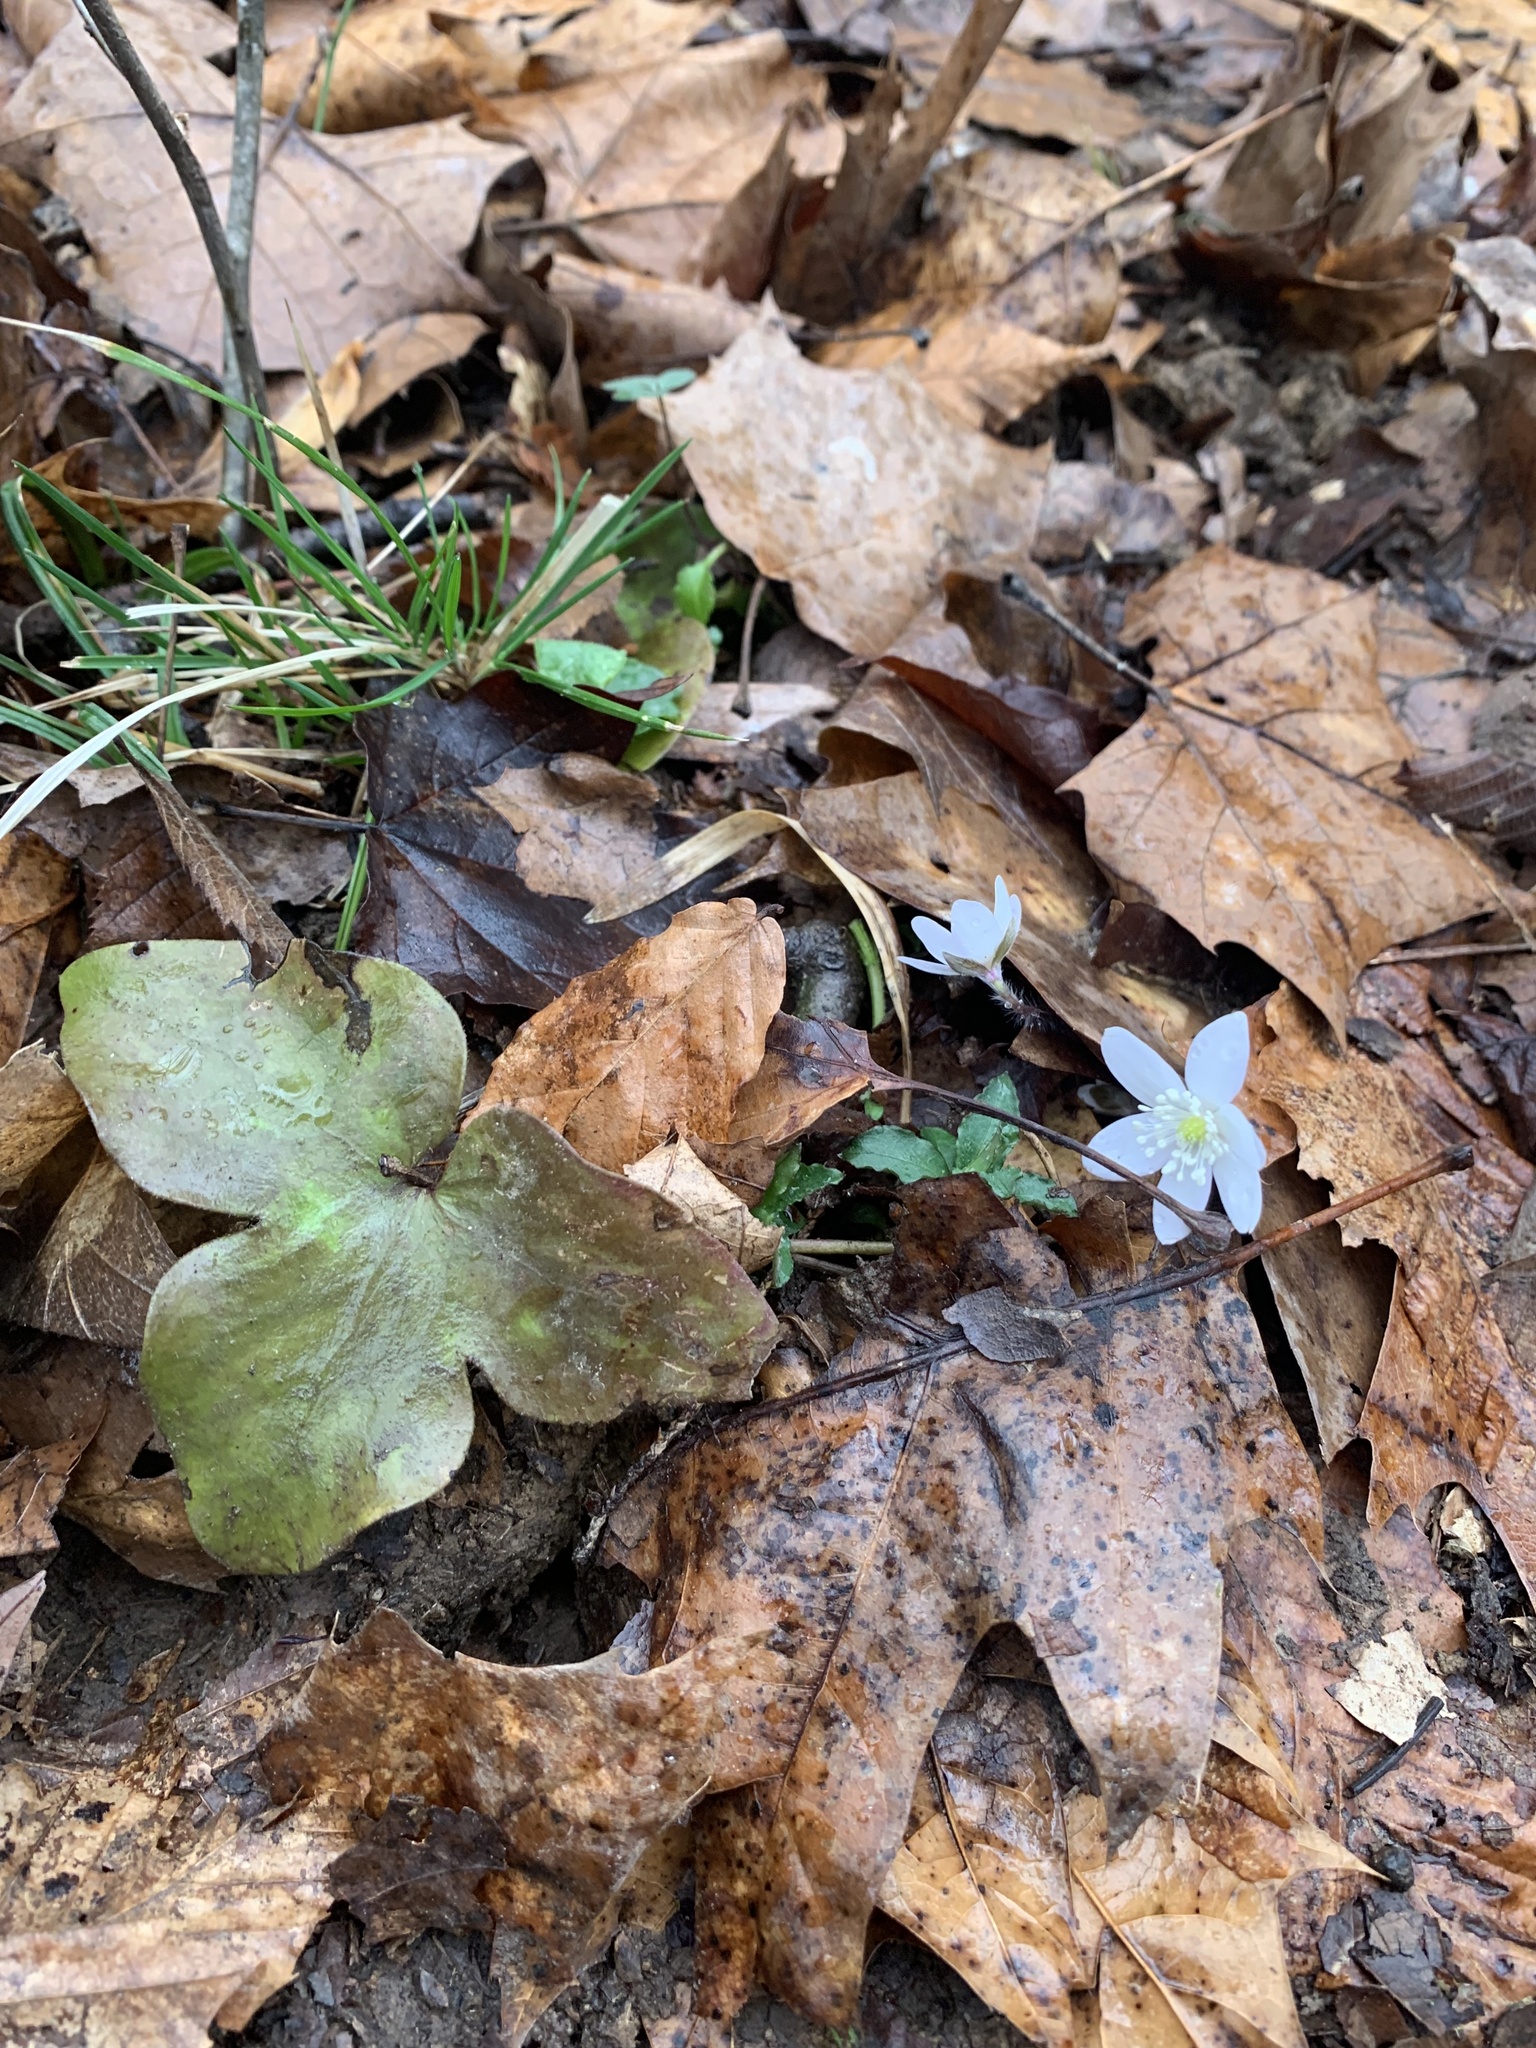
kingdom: Plantae
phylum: Tracheophyta
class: Magnoliopsida
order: Ranunculales
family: Ranunculaceae
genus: Hepatica
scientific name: Hepatica acutiloba
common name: Sharp-lobed hepatica
